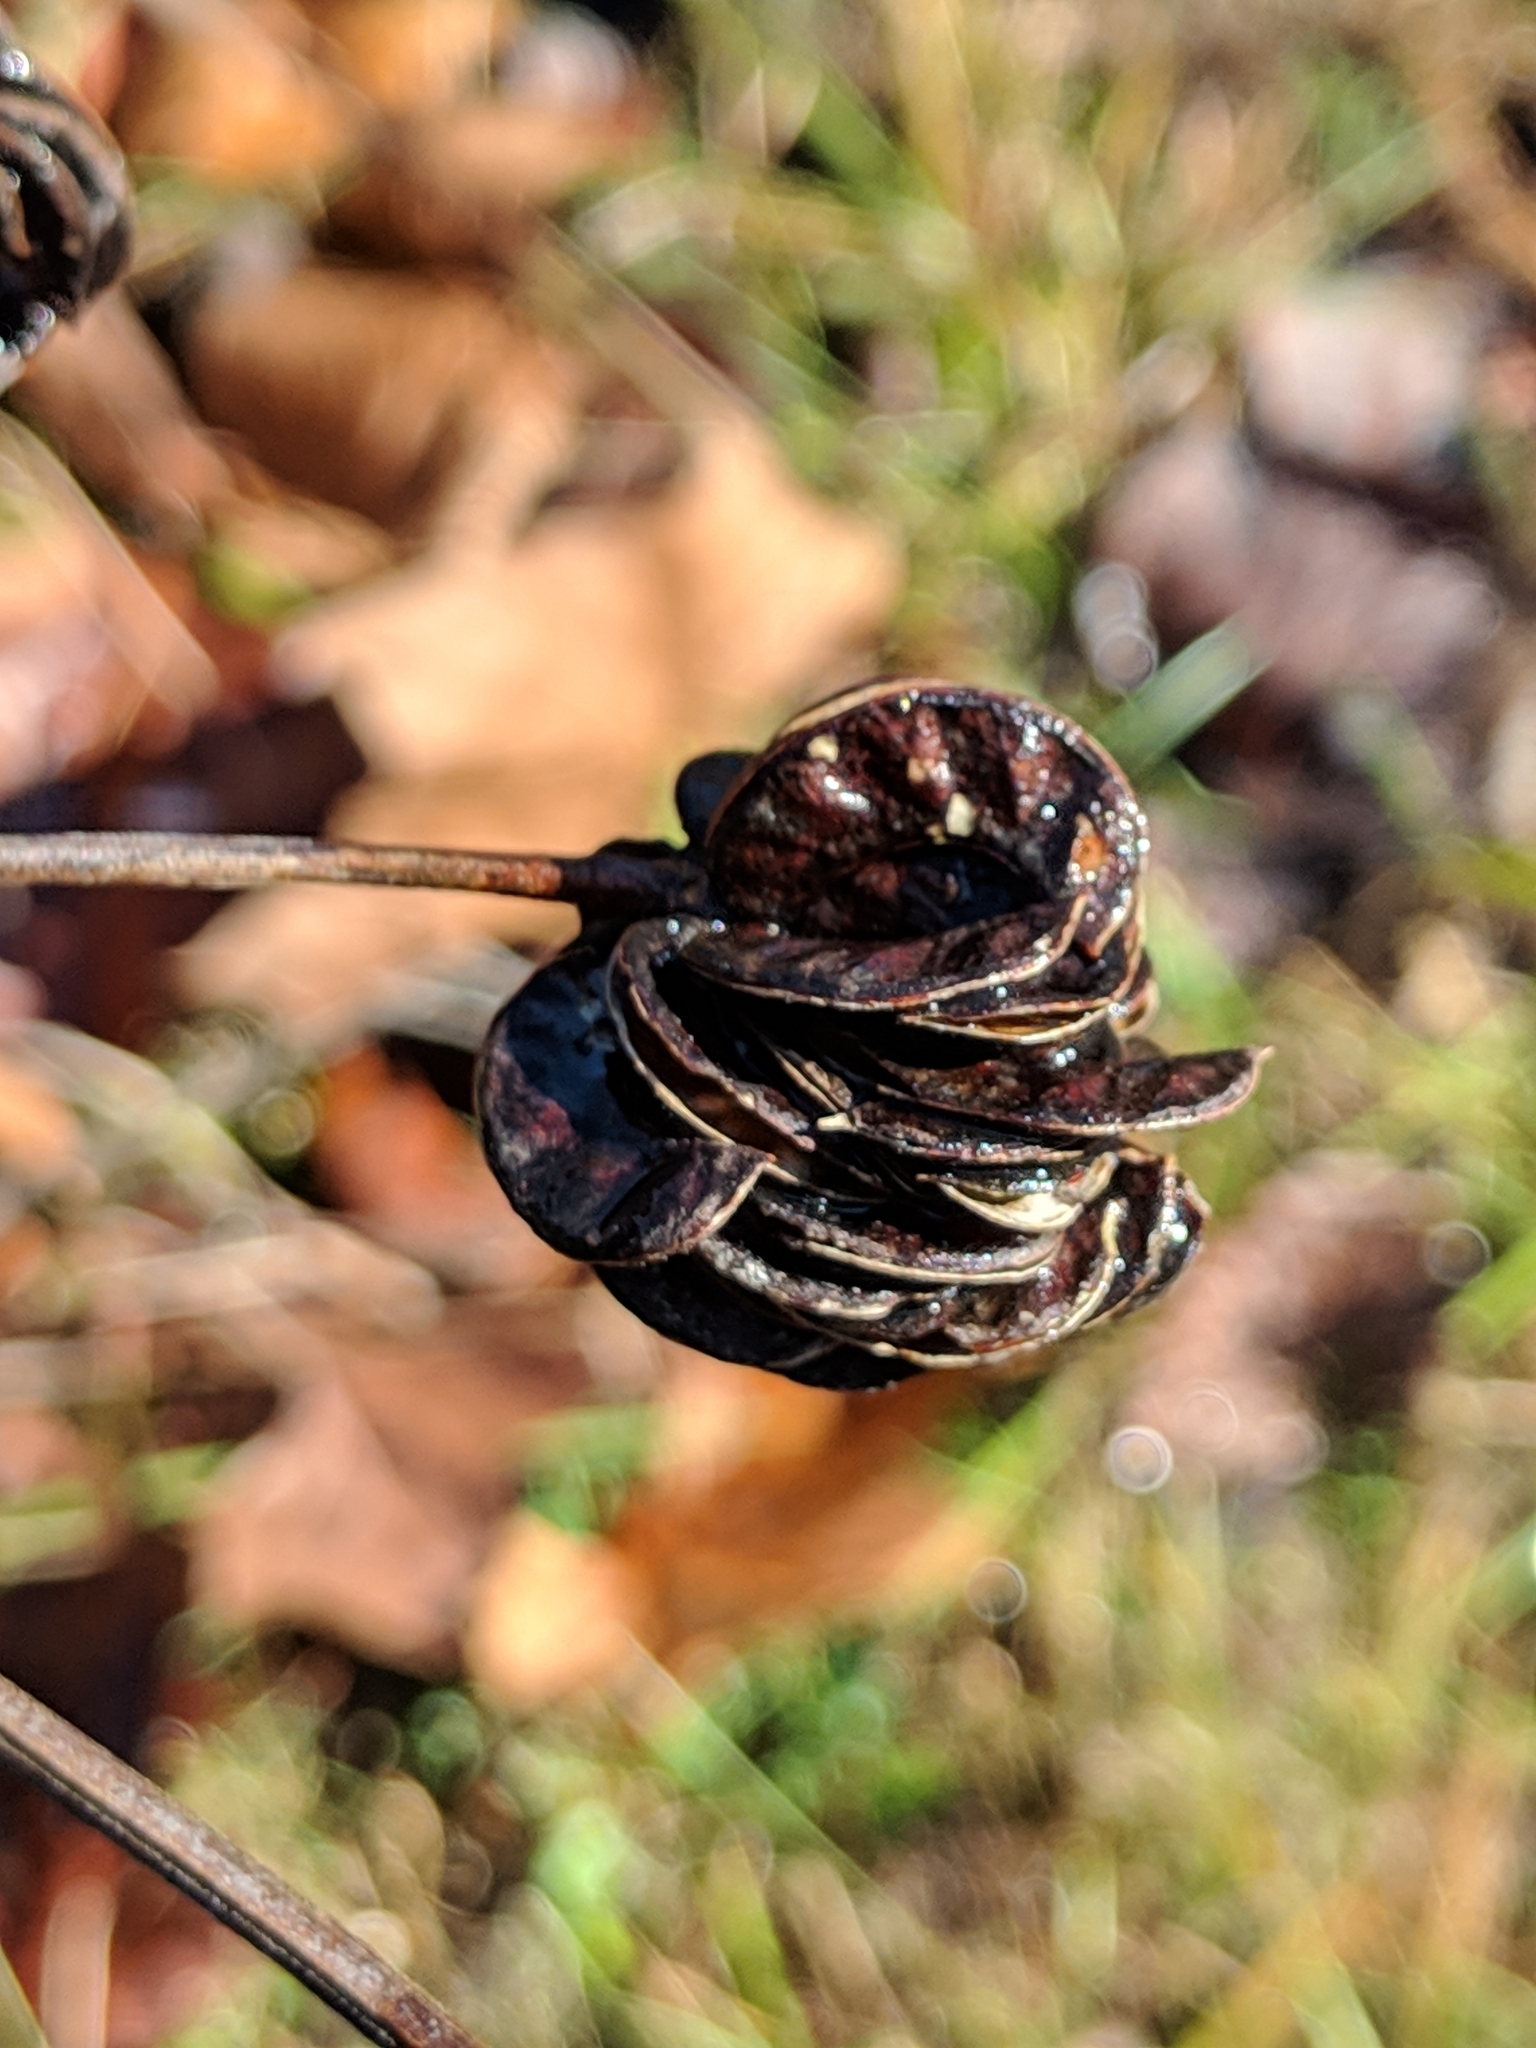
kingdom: Plantae
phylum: Tracheophyta
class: Magnoliopsida
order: Fabales
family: Fabaceae
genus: Desmanthus
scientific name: Desmanthus illinoensis
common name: Illinois bundle-flower
